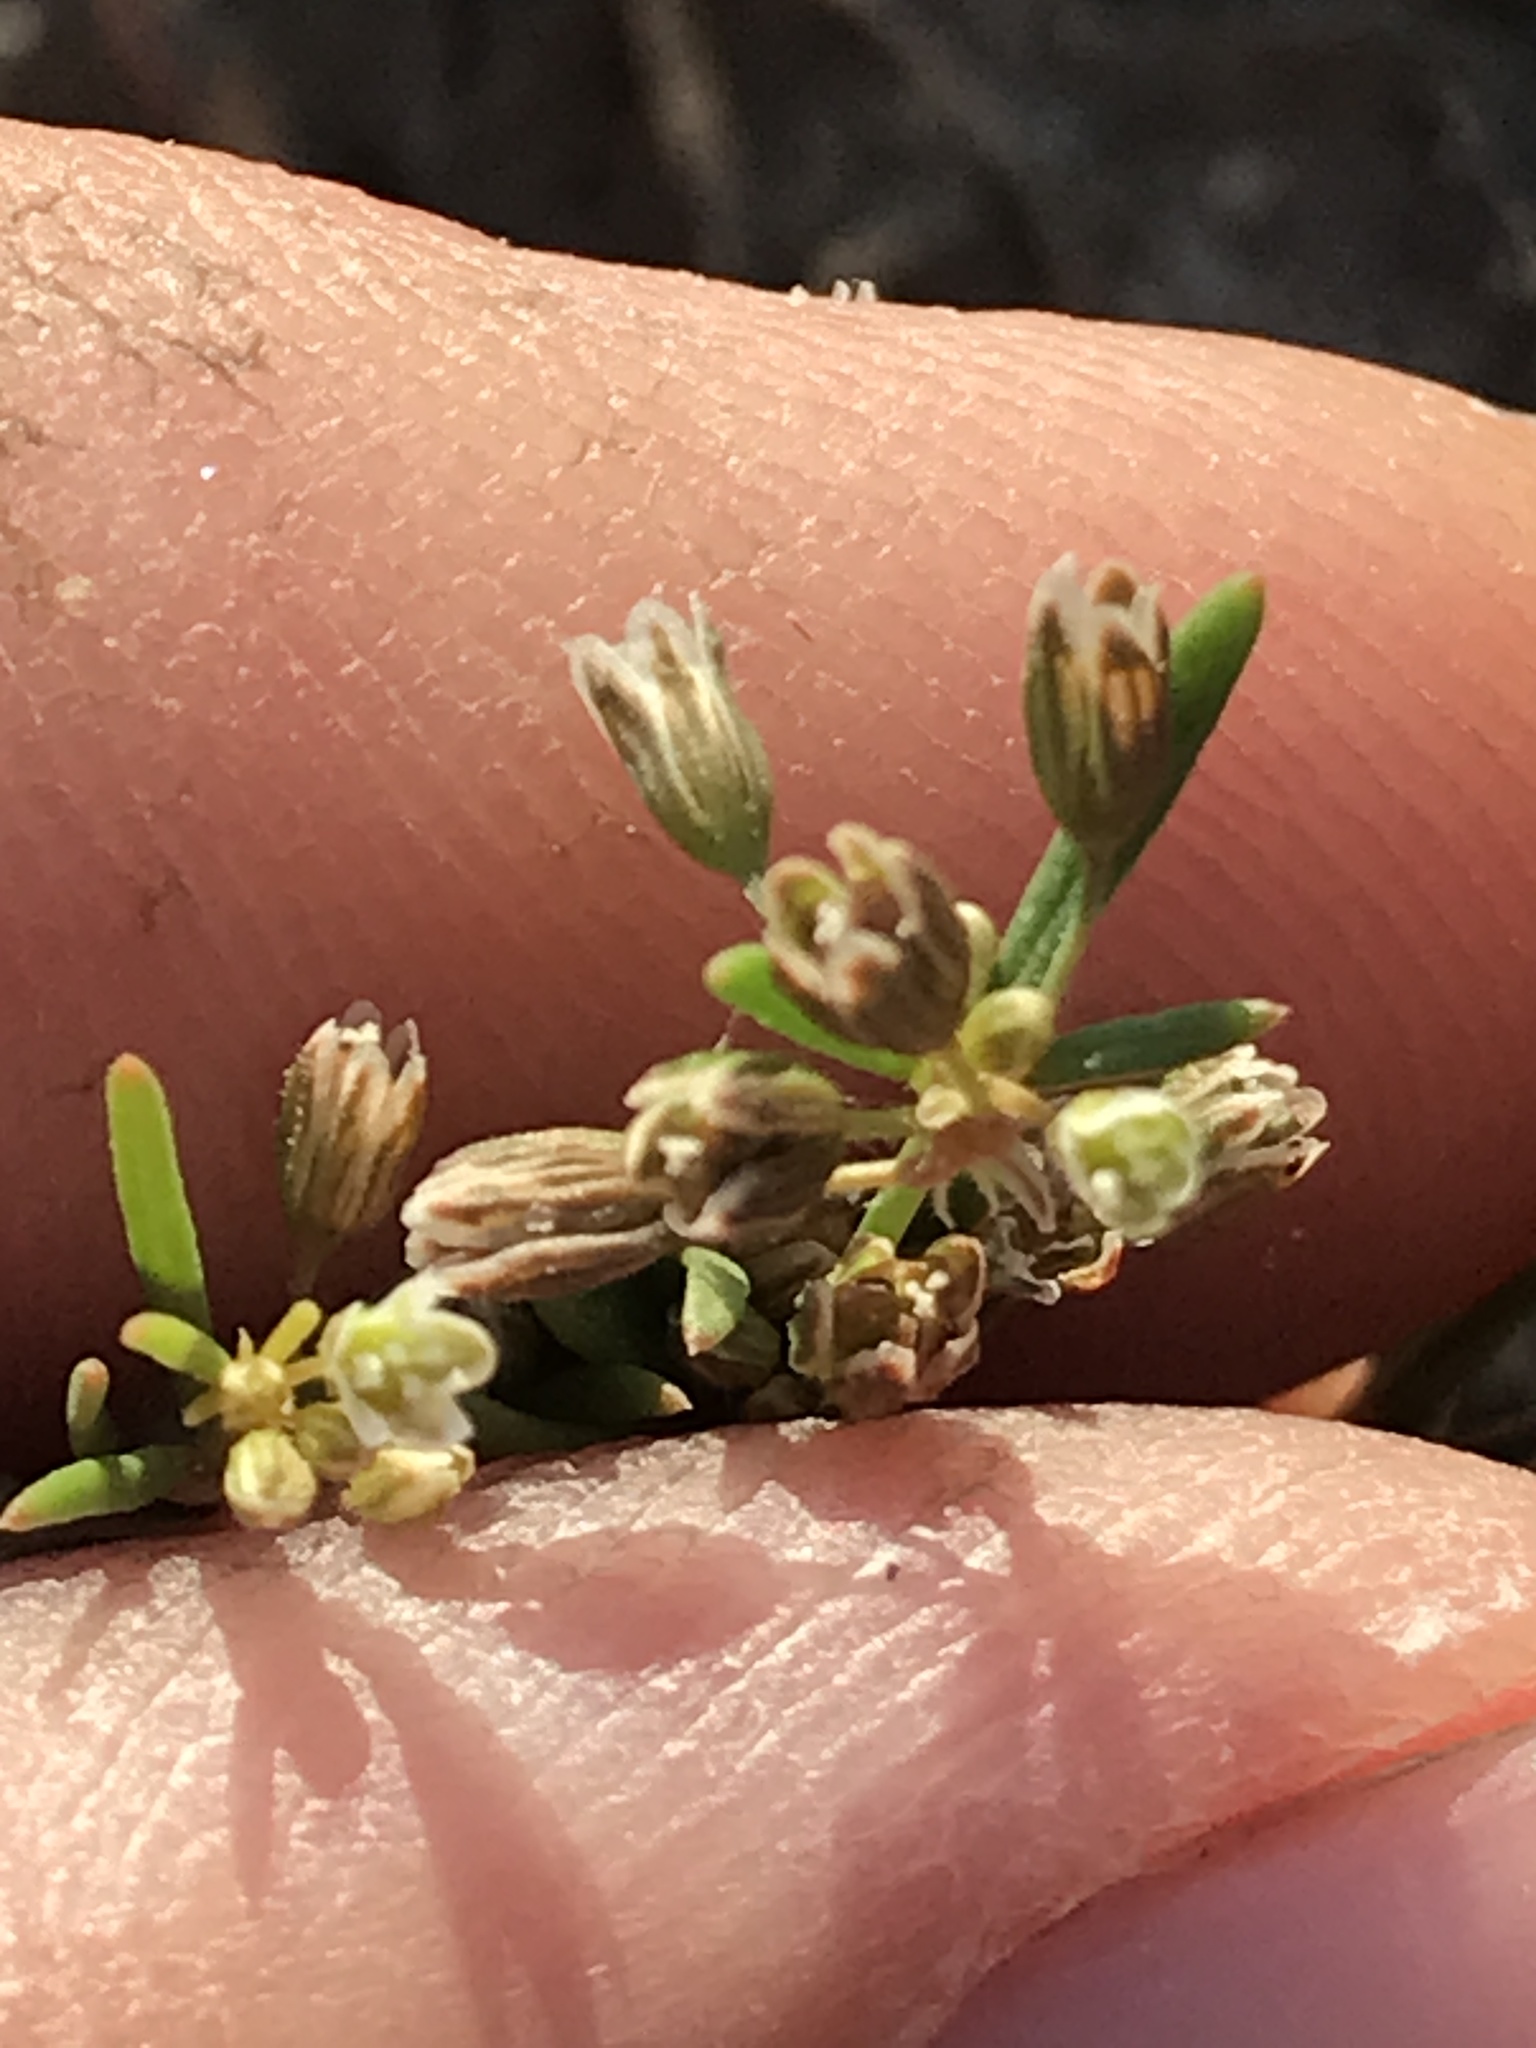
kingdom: Plantae
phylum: Tracheophyta
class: Magnoliopsida
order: Caryophyllales
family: Molluginaceae
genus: Mollugo
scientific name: Mollugo verticillata
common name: Green carpetweed
